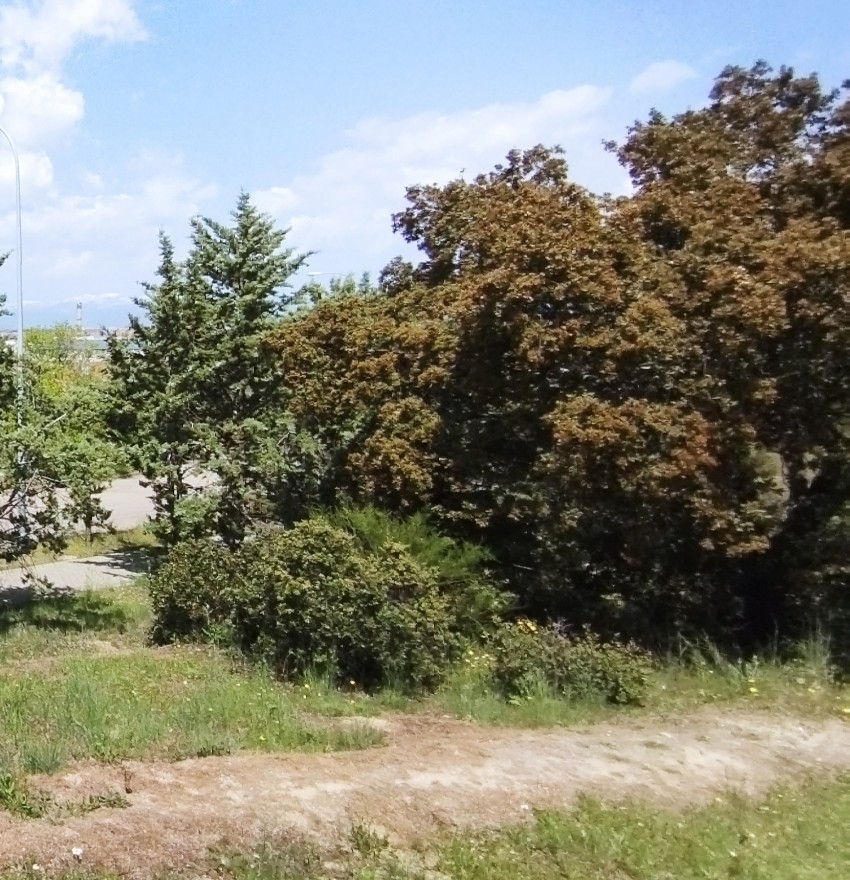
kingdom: Plantae
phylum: Tracheophyta
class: Magnoliopsida
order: Fagales
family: Fagaceae
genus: Quercus
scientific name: Quercus rotundifolia
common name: Holm oak
